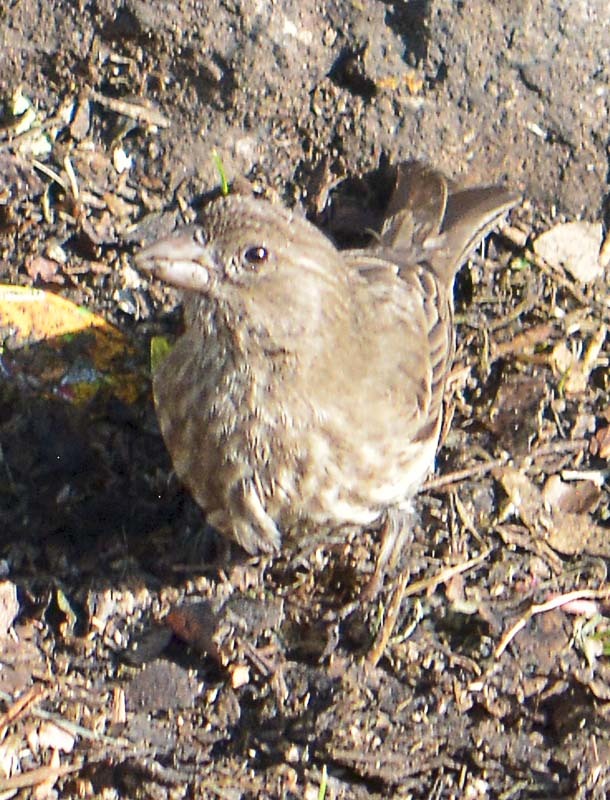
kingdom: Animalia
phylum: Chordata
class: Aves
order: Passeriformes
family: Fringillidae
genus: Haemorhous
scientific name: Haemorhous mexicanus
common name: House finch
